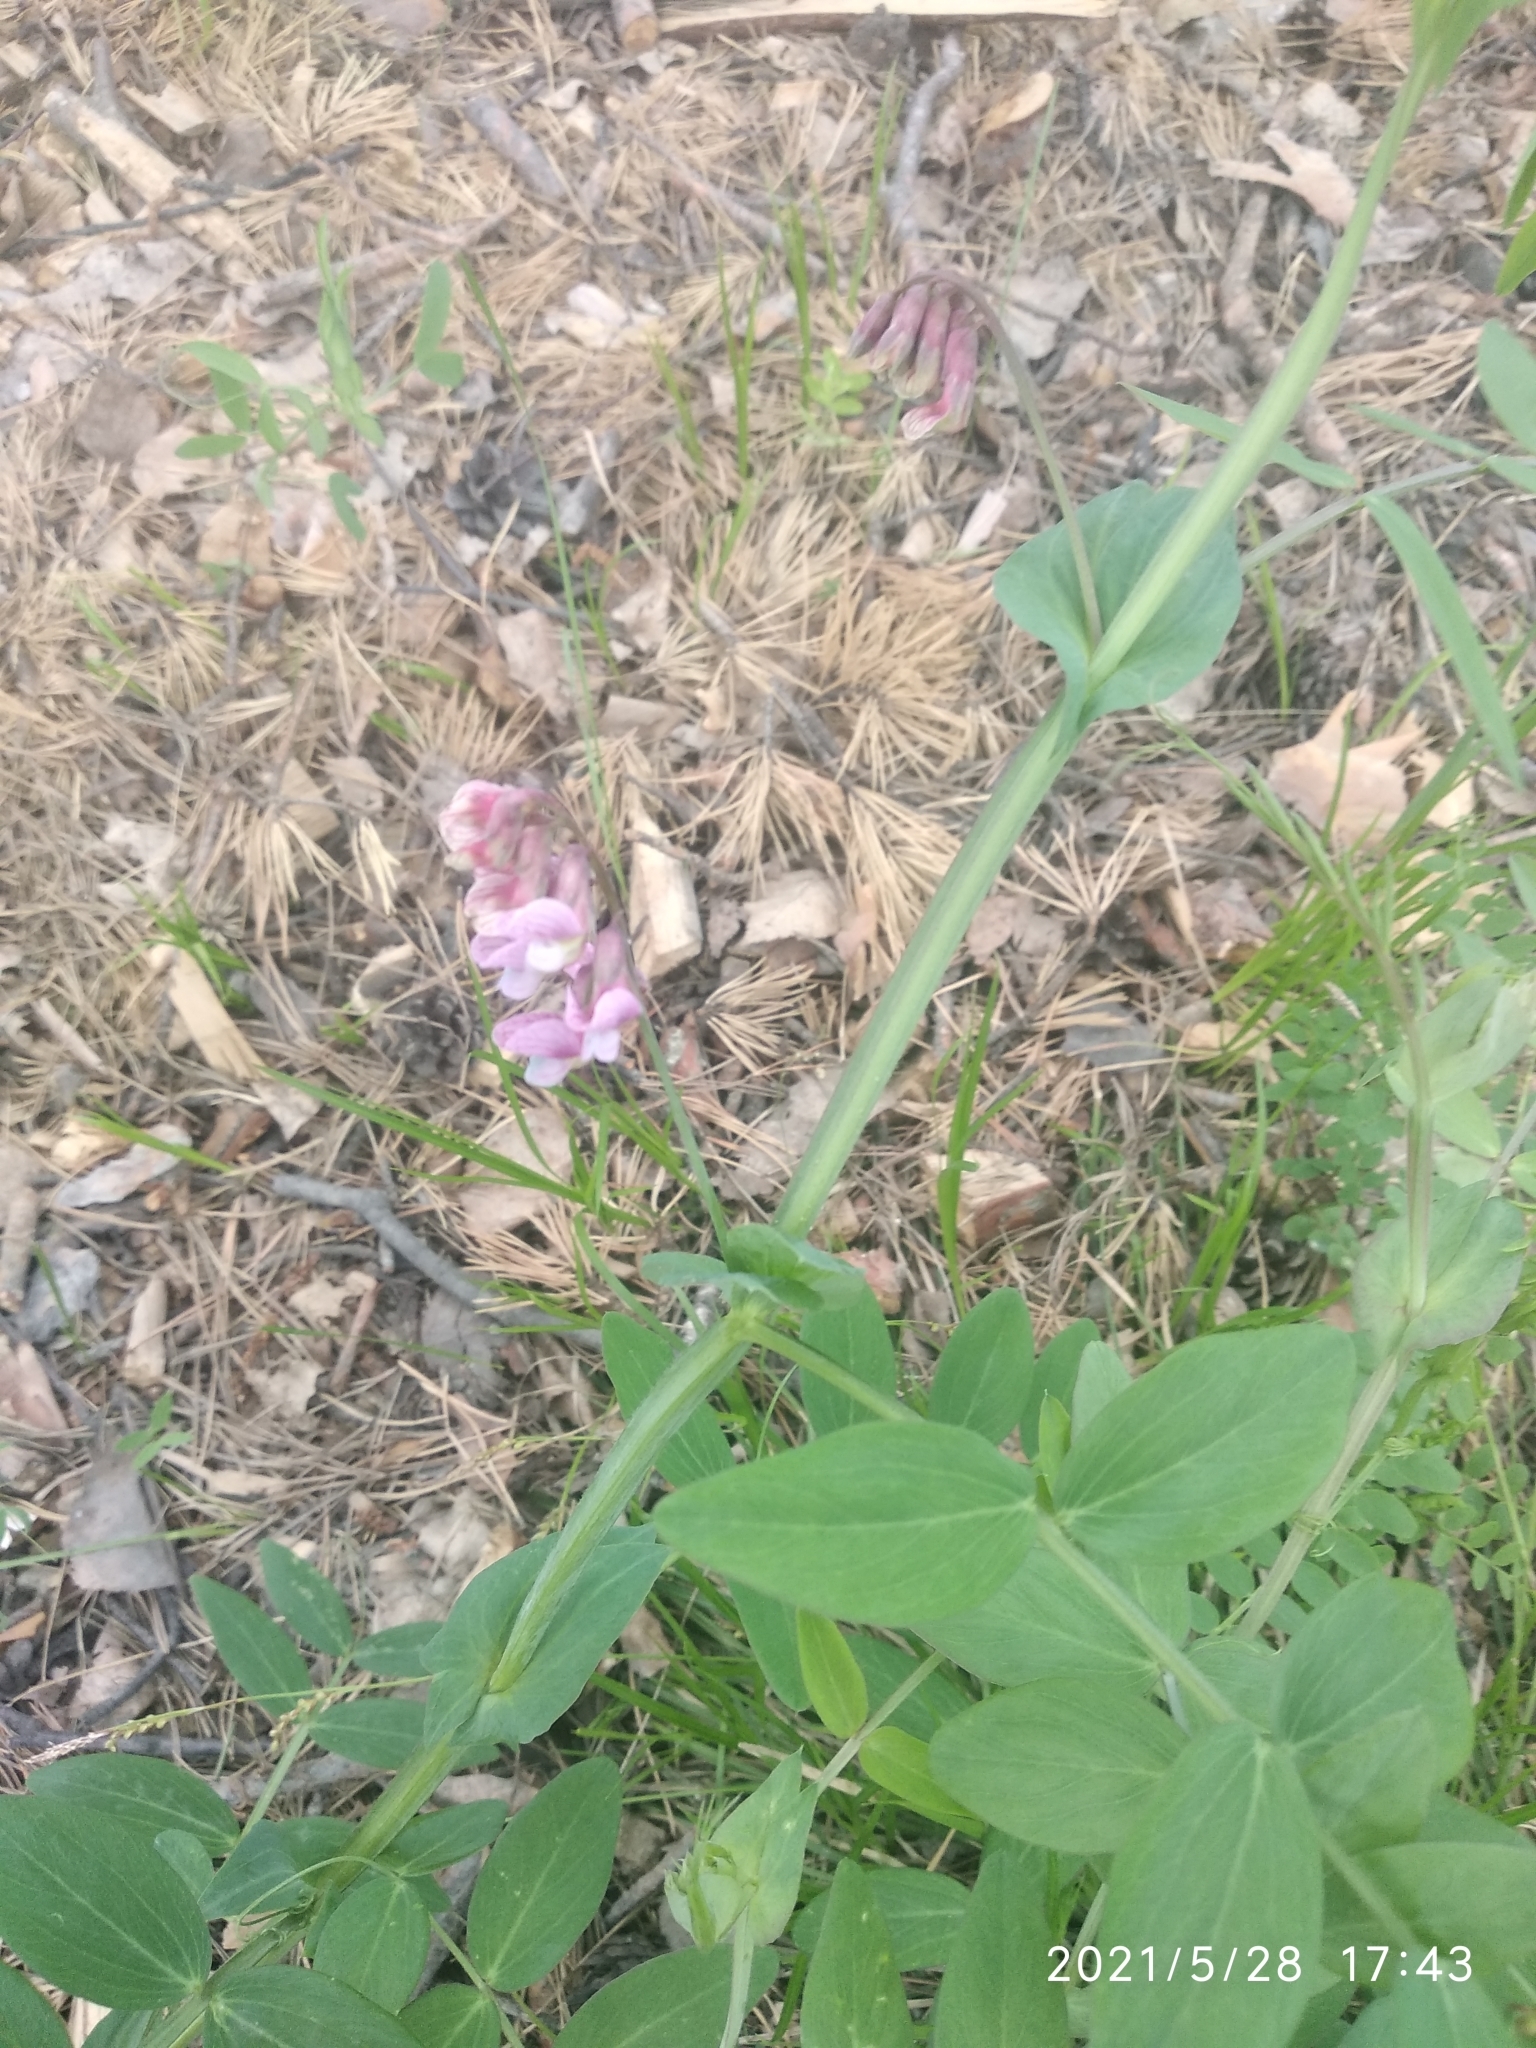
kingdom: Plantae
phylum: Tracheophyta
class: Magnoliopsida
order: Fabales
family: Fabaceae
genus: Lathyrus
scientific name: Lathyrus pisiformis
